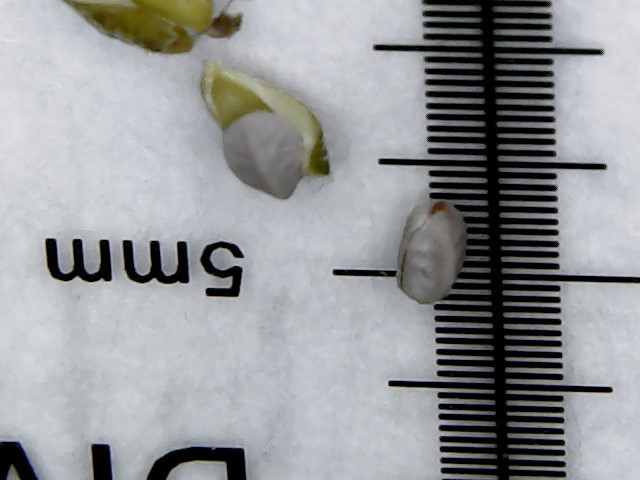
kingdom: Plantae
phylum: Tracheophyta
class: Magnoliopsida
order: Malpighiales
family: Euphorbiaceae
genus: Euphorbia
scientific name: Euphorbia maculata
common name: Spotted spurge
